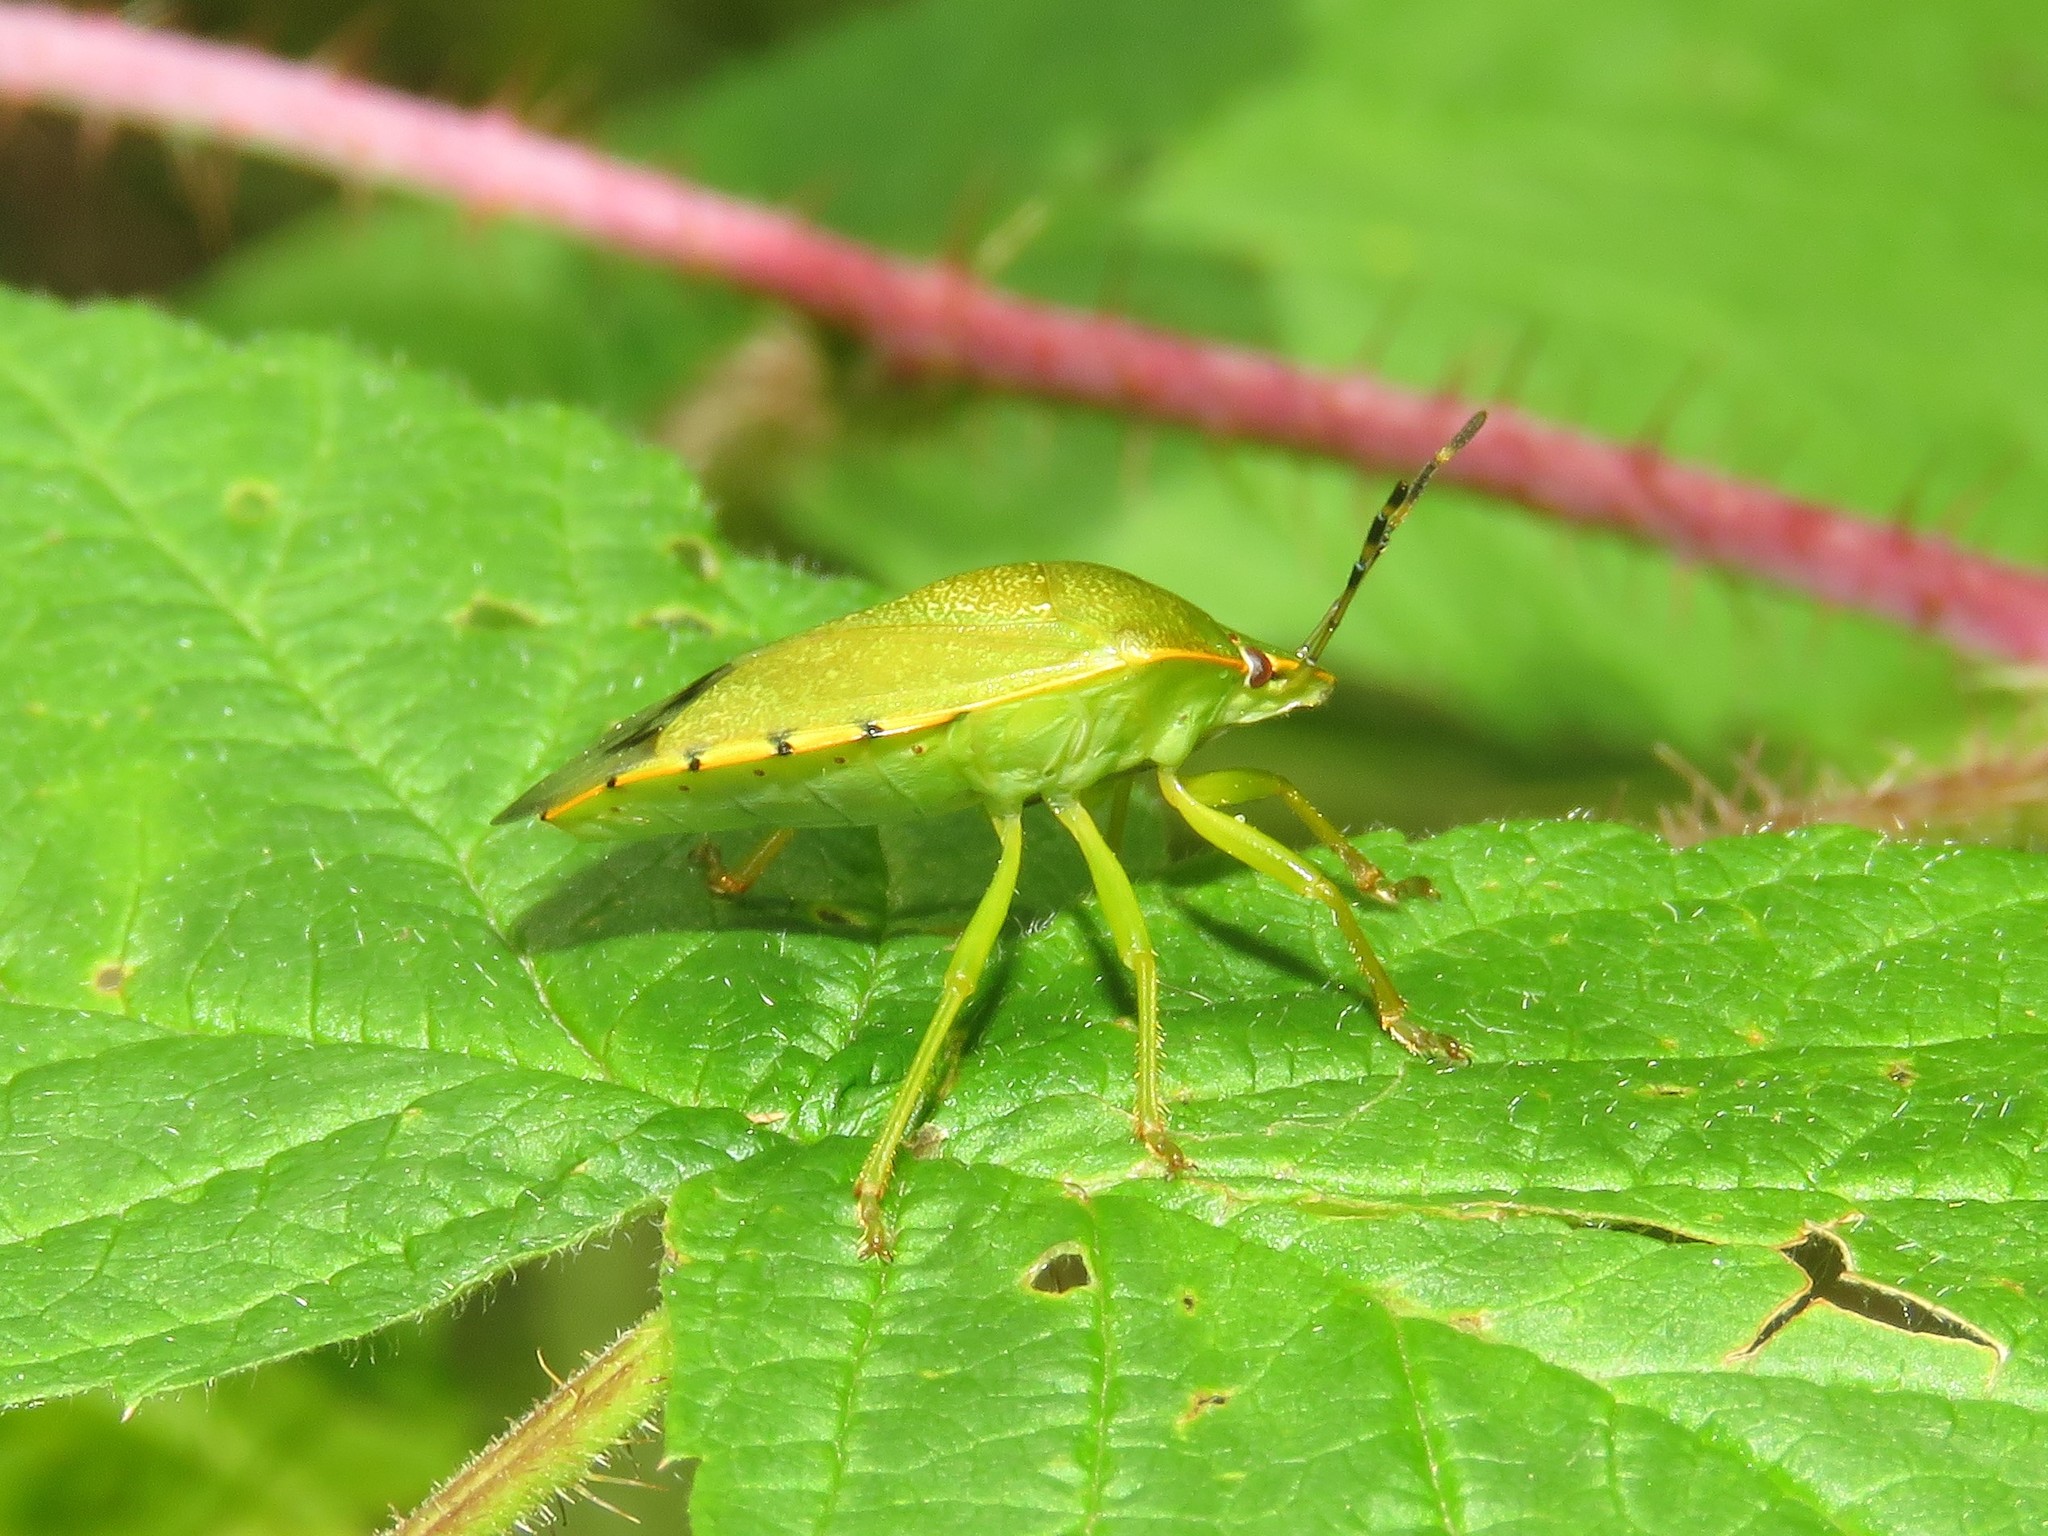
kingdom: Animalia
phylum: Arthropoda
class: Insecta
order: Hemiptera
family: Pentatomidae
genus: Chinavia
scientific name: Chinavia hilaris
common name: Green stink bug
